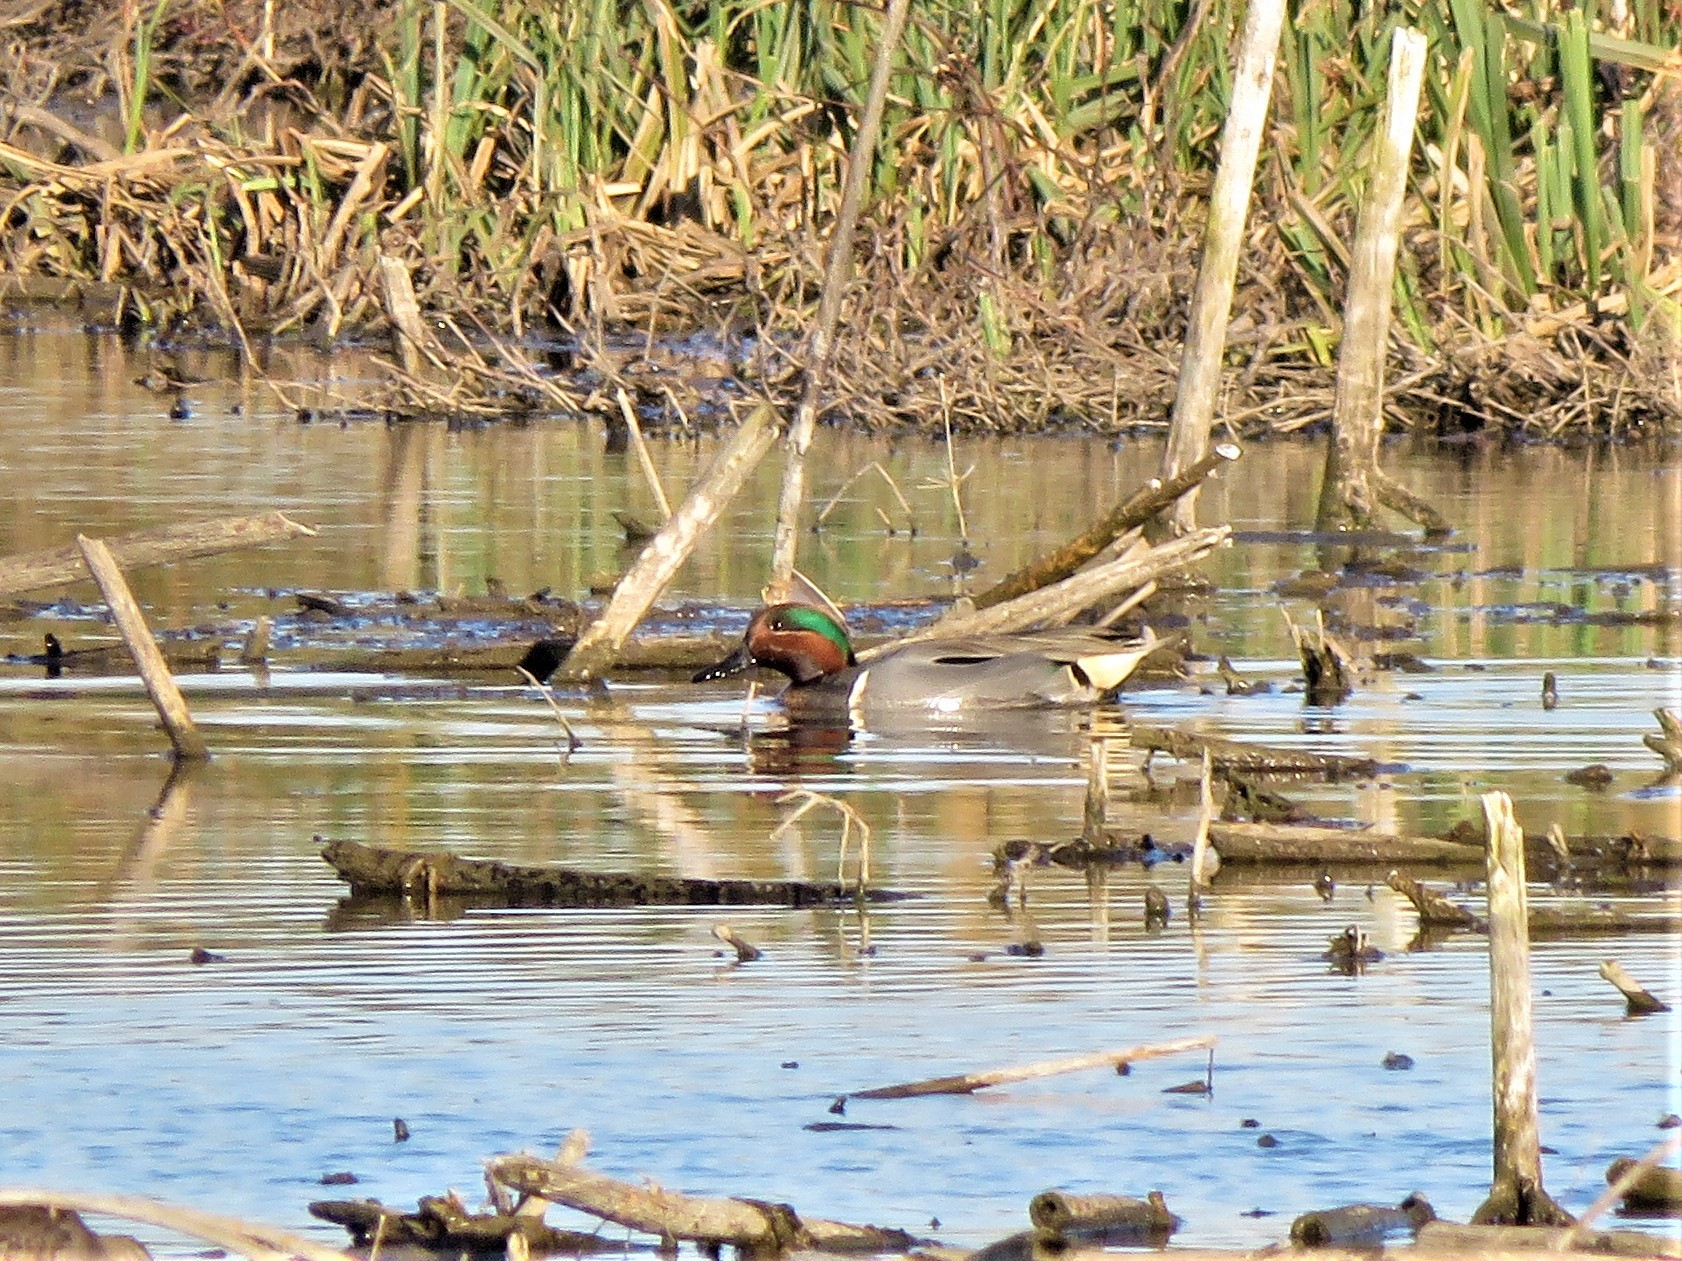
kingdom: Animalia
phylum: Chordata
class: Aves
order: Anseriformes
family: Anatidae
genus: Anas
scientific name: Anas crecca
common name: Eurasian teal
